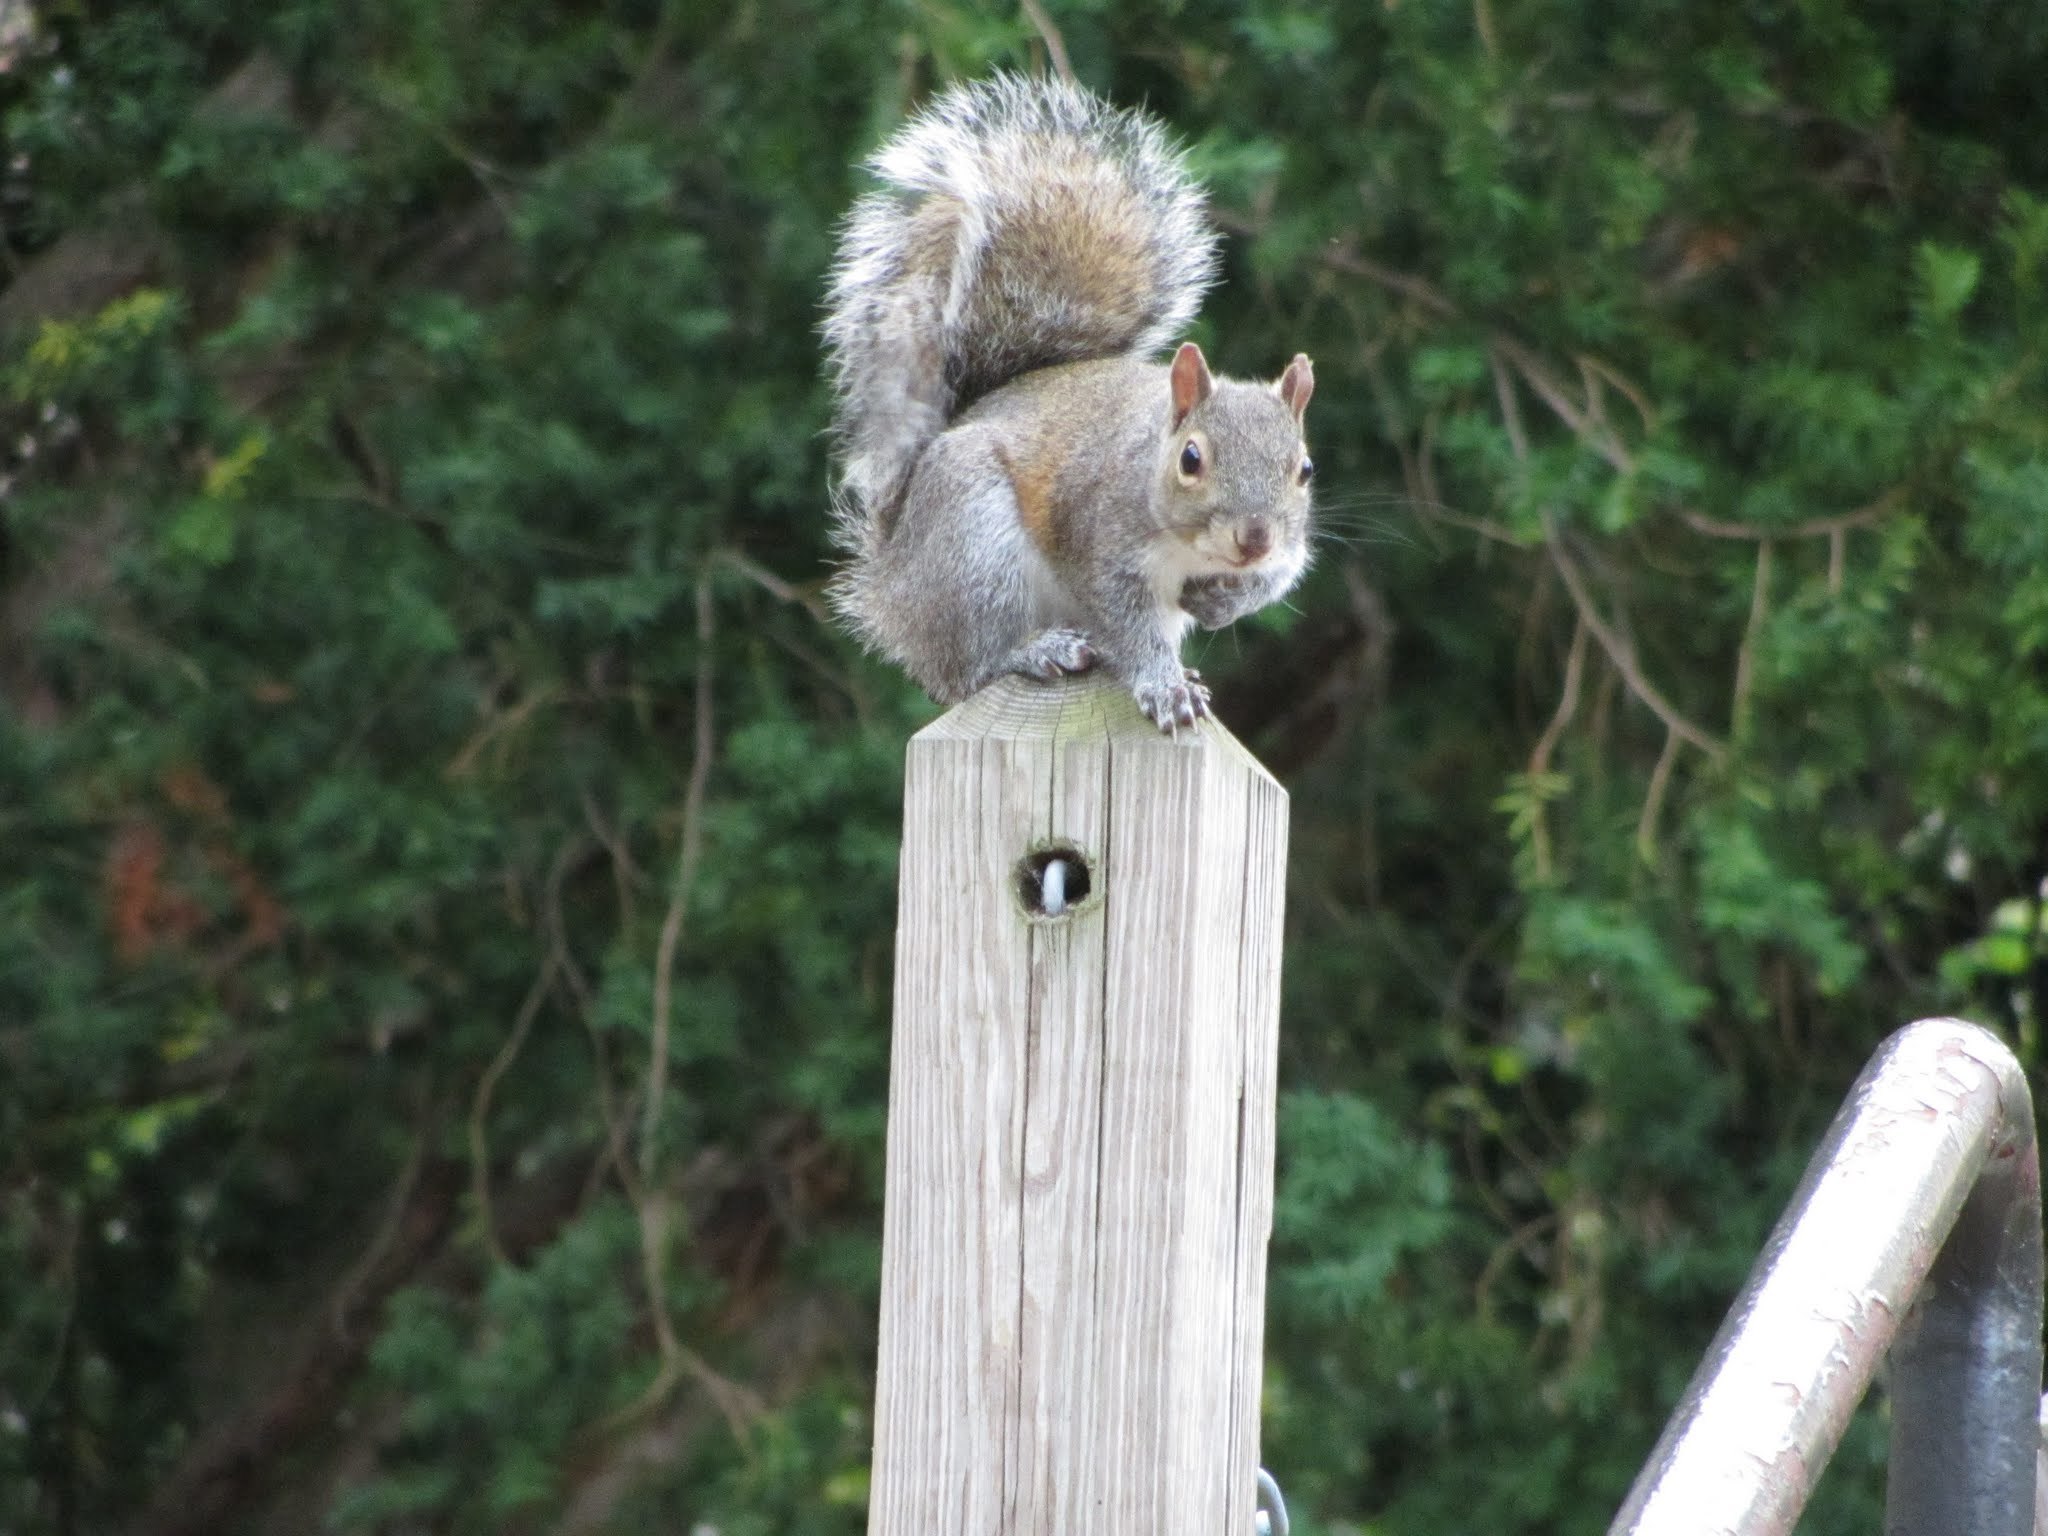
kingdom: Animalia
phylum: Chordata
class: Mammalia
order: Rodentia
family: Sciuridae
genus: Sciurus
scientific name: Sciurus carolinensis
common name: Eastern gray squirrel
